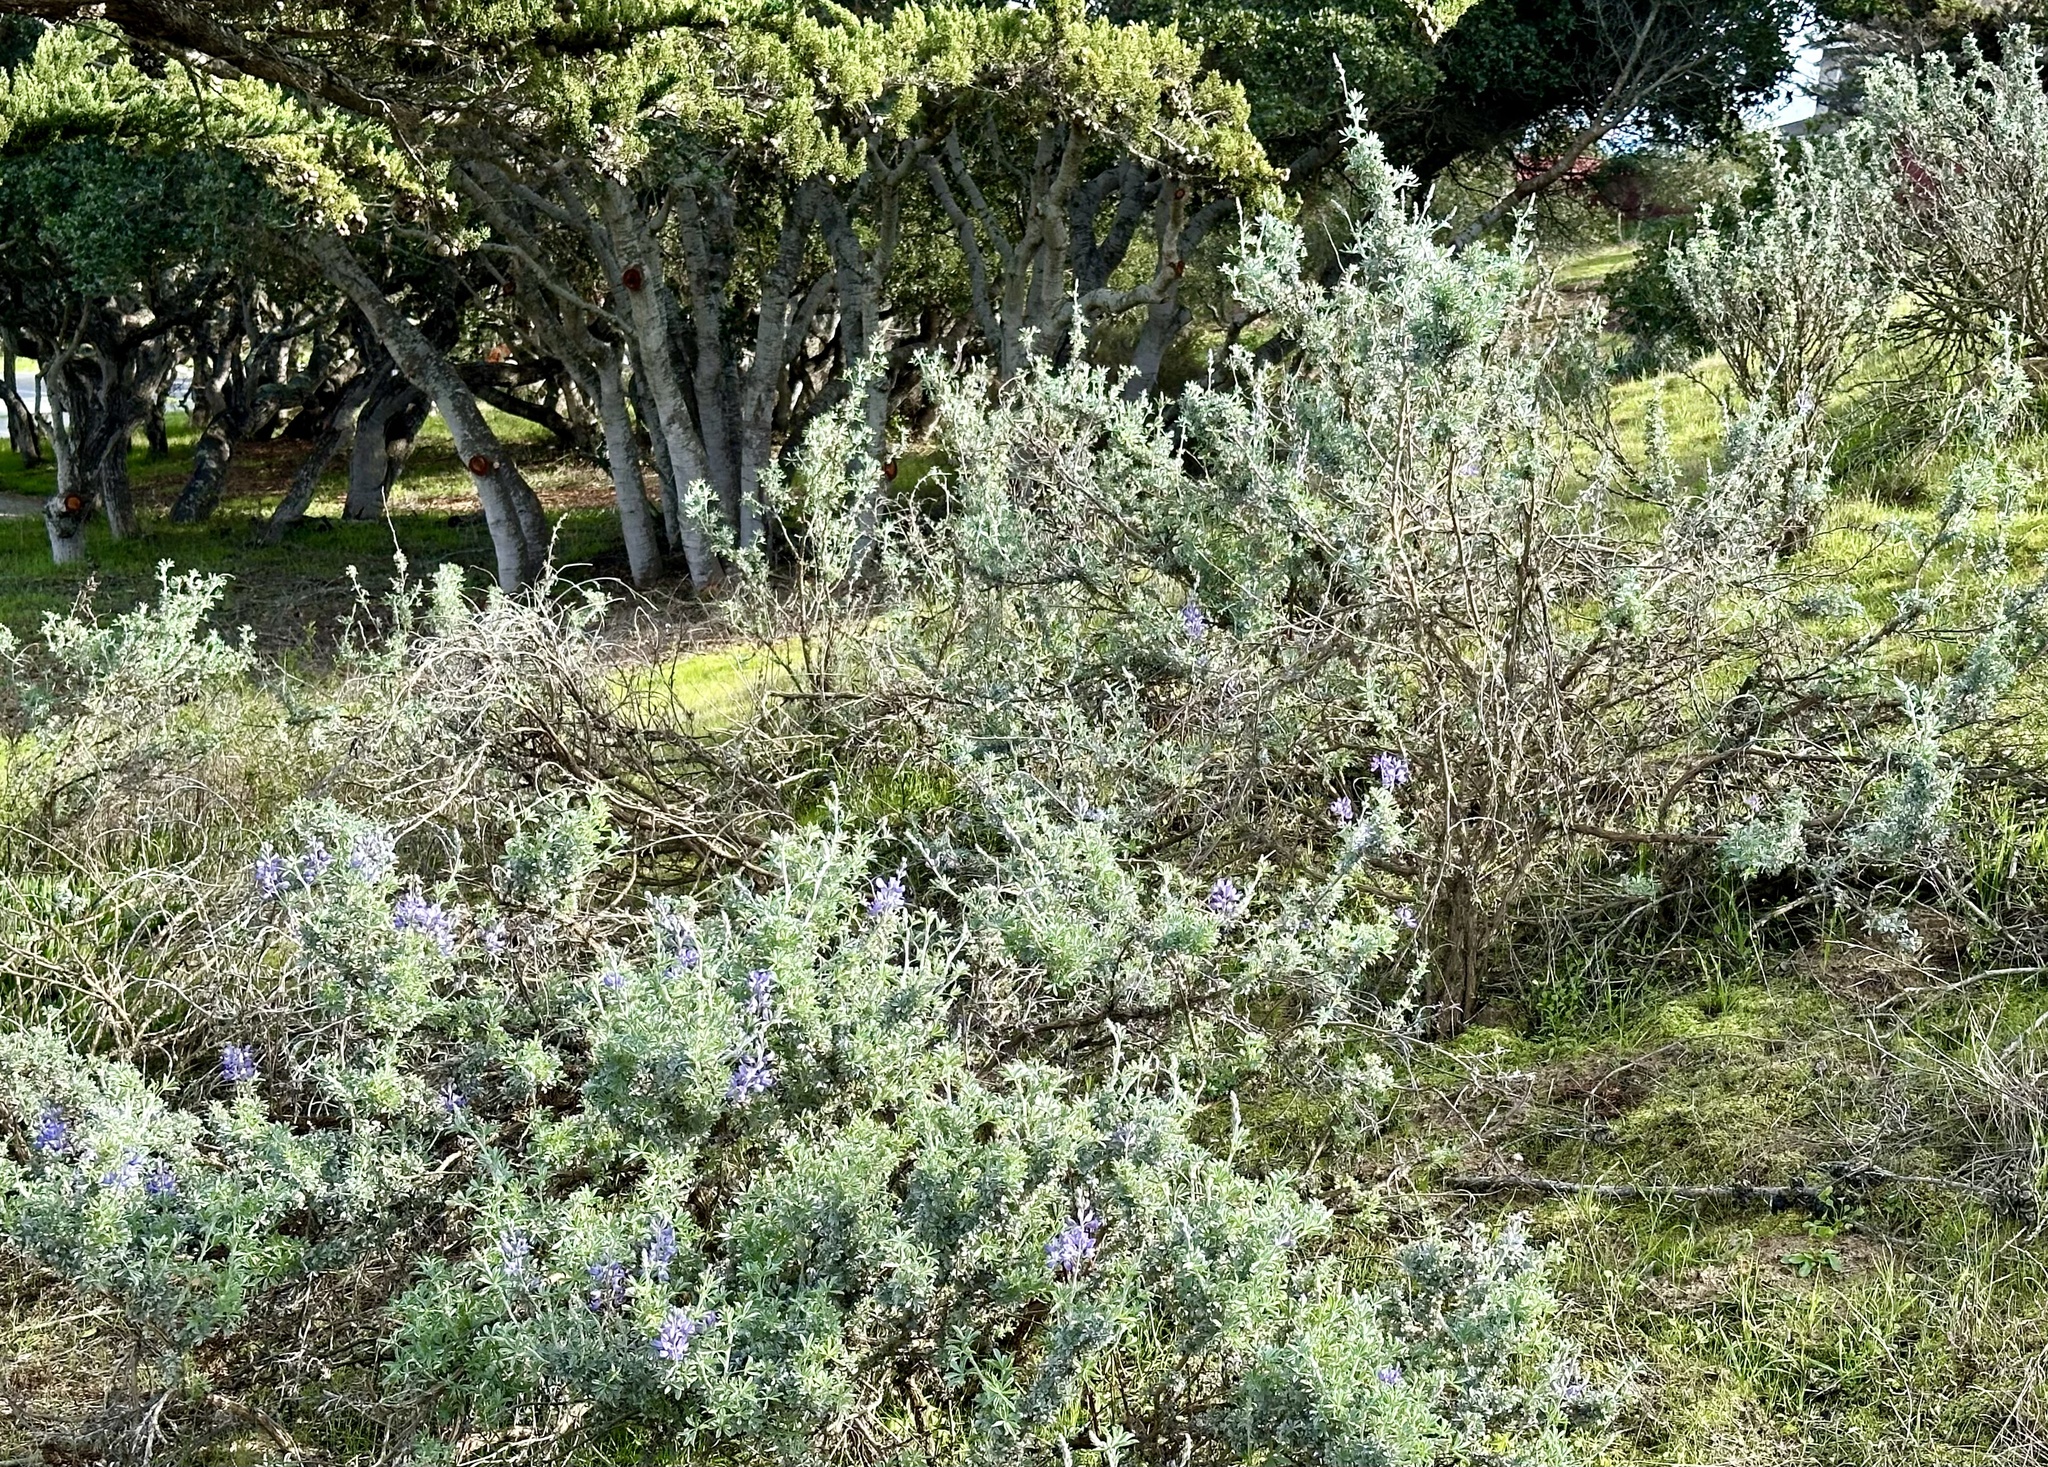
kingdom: Plantae
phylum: Tracheophyta
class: Magnoliopsida
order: Fabales
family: Fabaceae
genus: Lupinus
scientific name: Lupinus chamissonis
